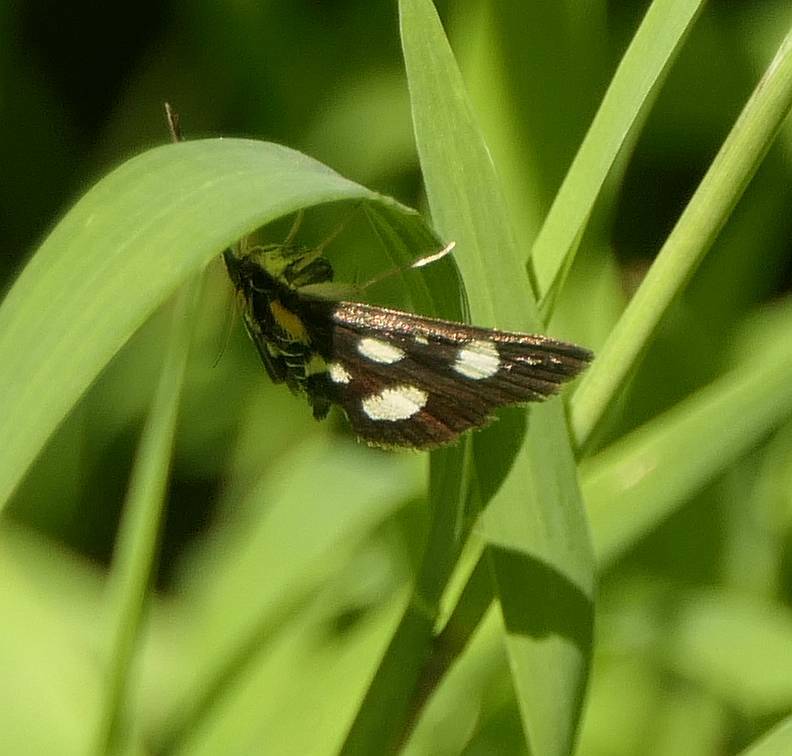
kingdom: Animalia
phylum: Arthropoda
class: Insecta
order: Lepidoptera
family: Crambidae
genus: Anania
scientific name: Anania funebris
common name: White-spotted sable moth
